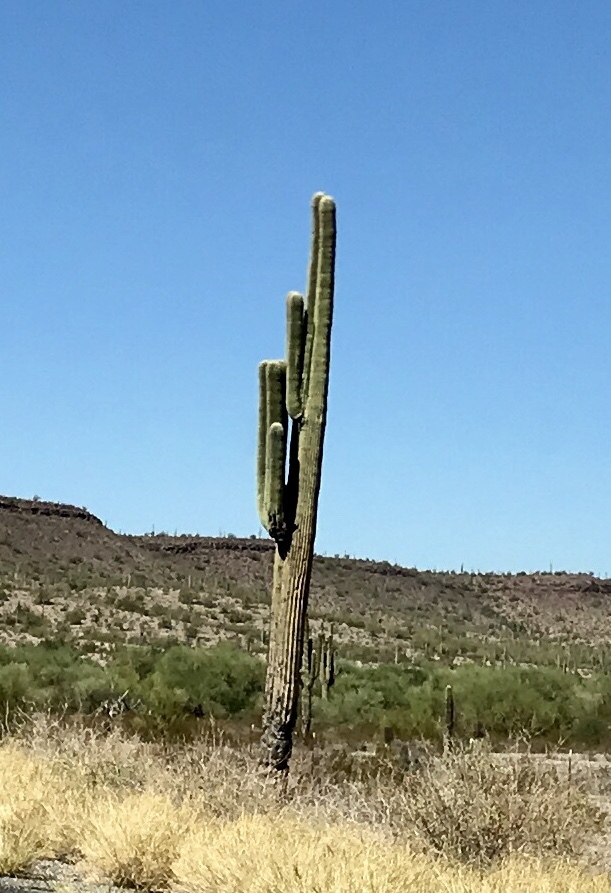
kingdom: Plantae
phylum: Tracheophyta
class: Magnoliopsida
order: Caryophyllales
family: Cactaceae
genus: Carnegiea
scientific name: Carnegiea gigantea
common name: Saguaro
